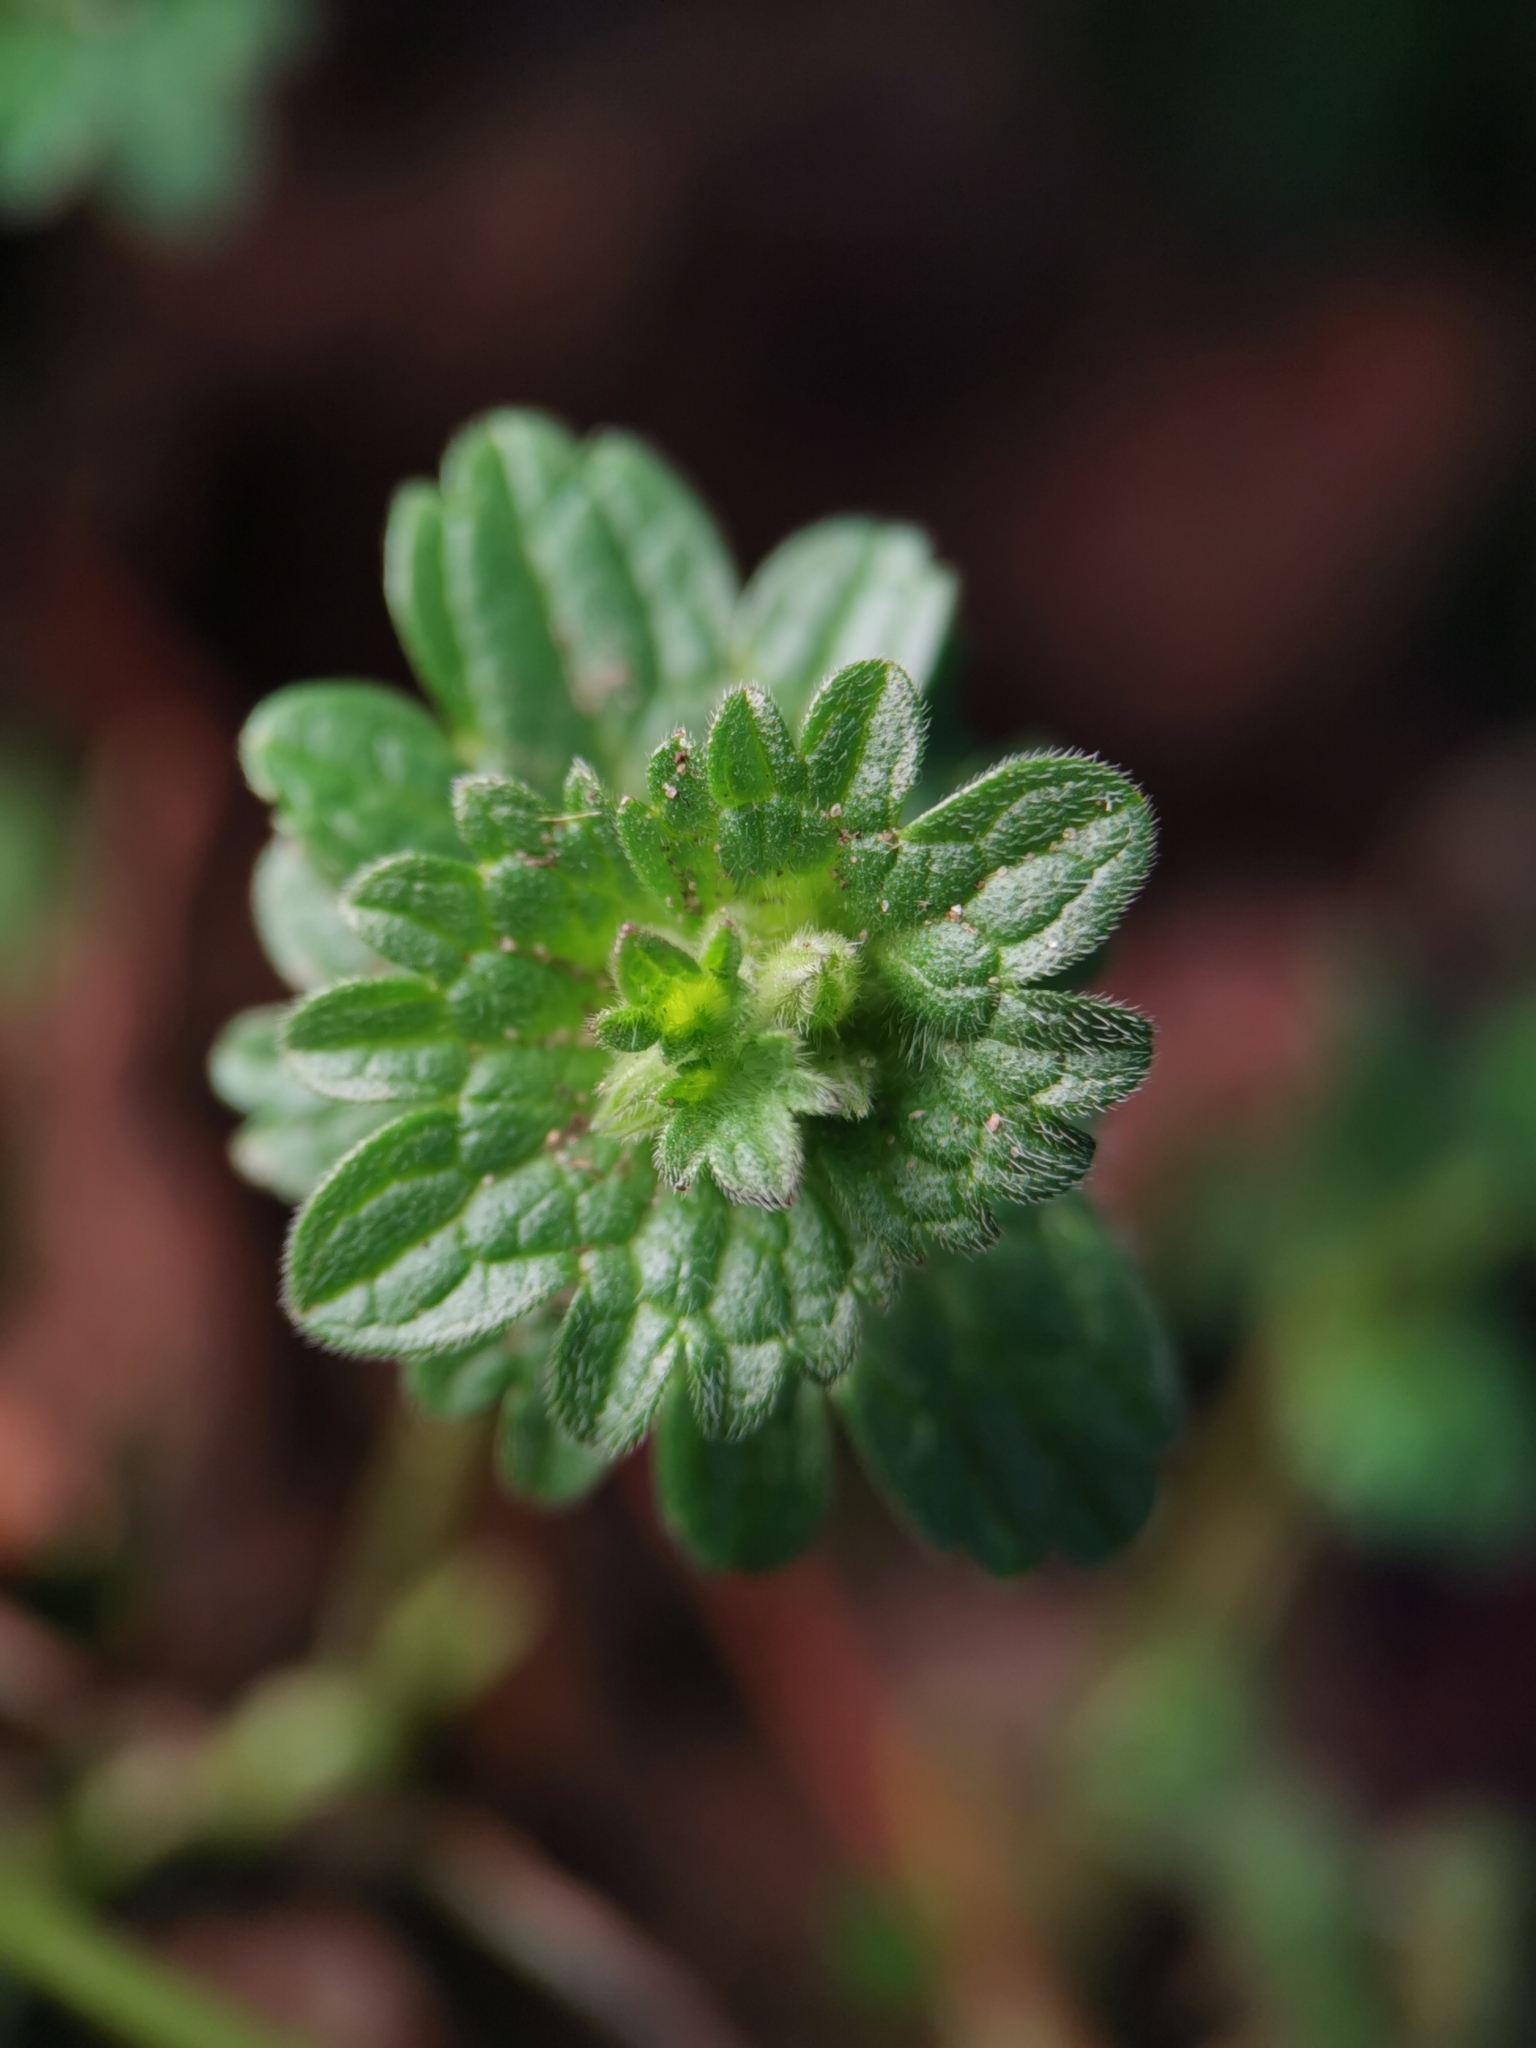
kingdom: Plantae
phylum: Tracheophyta
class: Magnoliopsida
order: Lamiales
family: Lamiaceae
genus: Lamium
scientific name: Lamium amplexicaule
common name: Henbit dead-nettle
